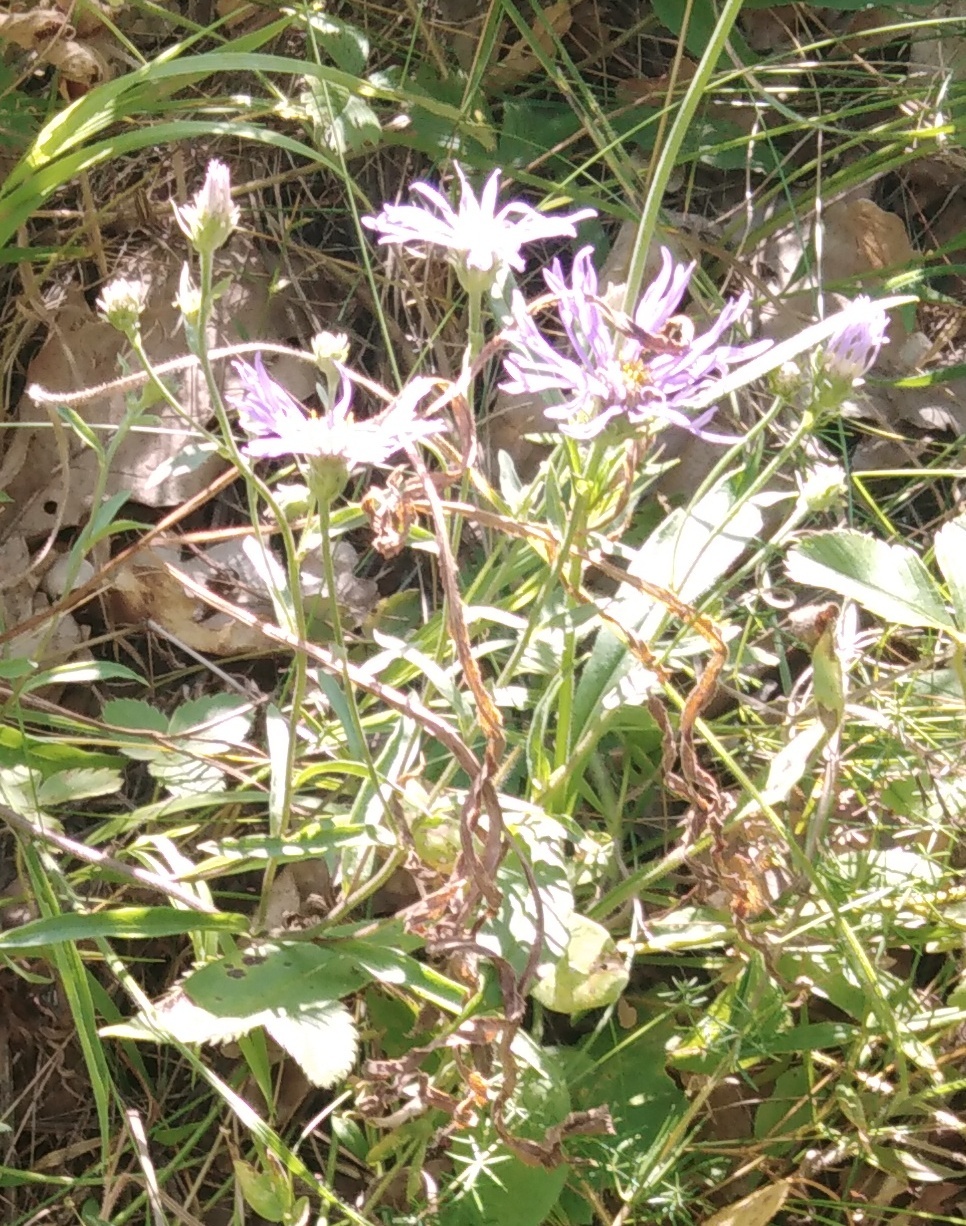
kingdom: Plantae
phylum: Tracheophyta
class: Magnoliopsida
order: Asterales
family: Asteraceae
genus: Aster
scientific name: Aster amellus
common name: European michaelmas daisy
